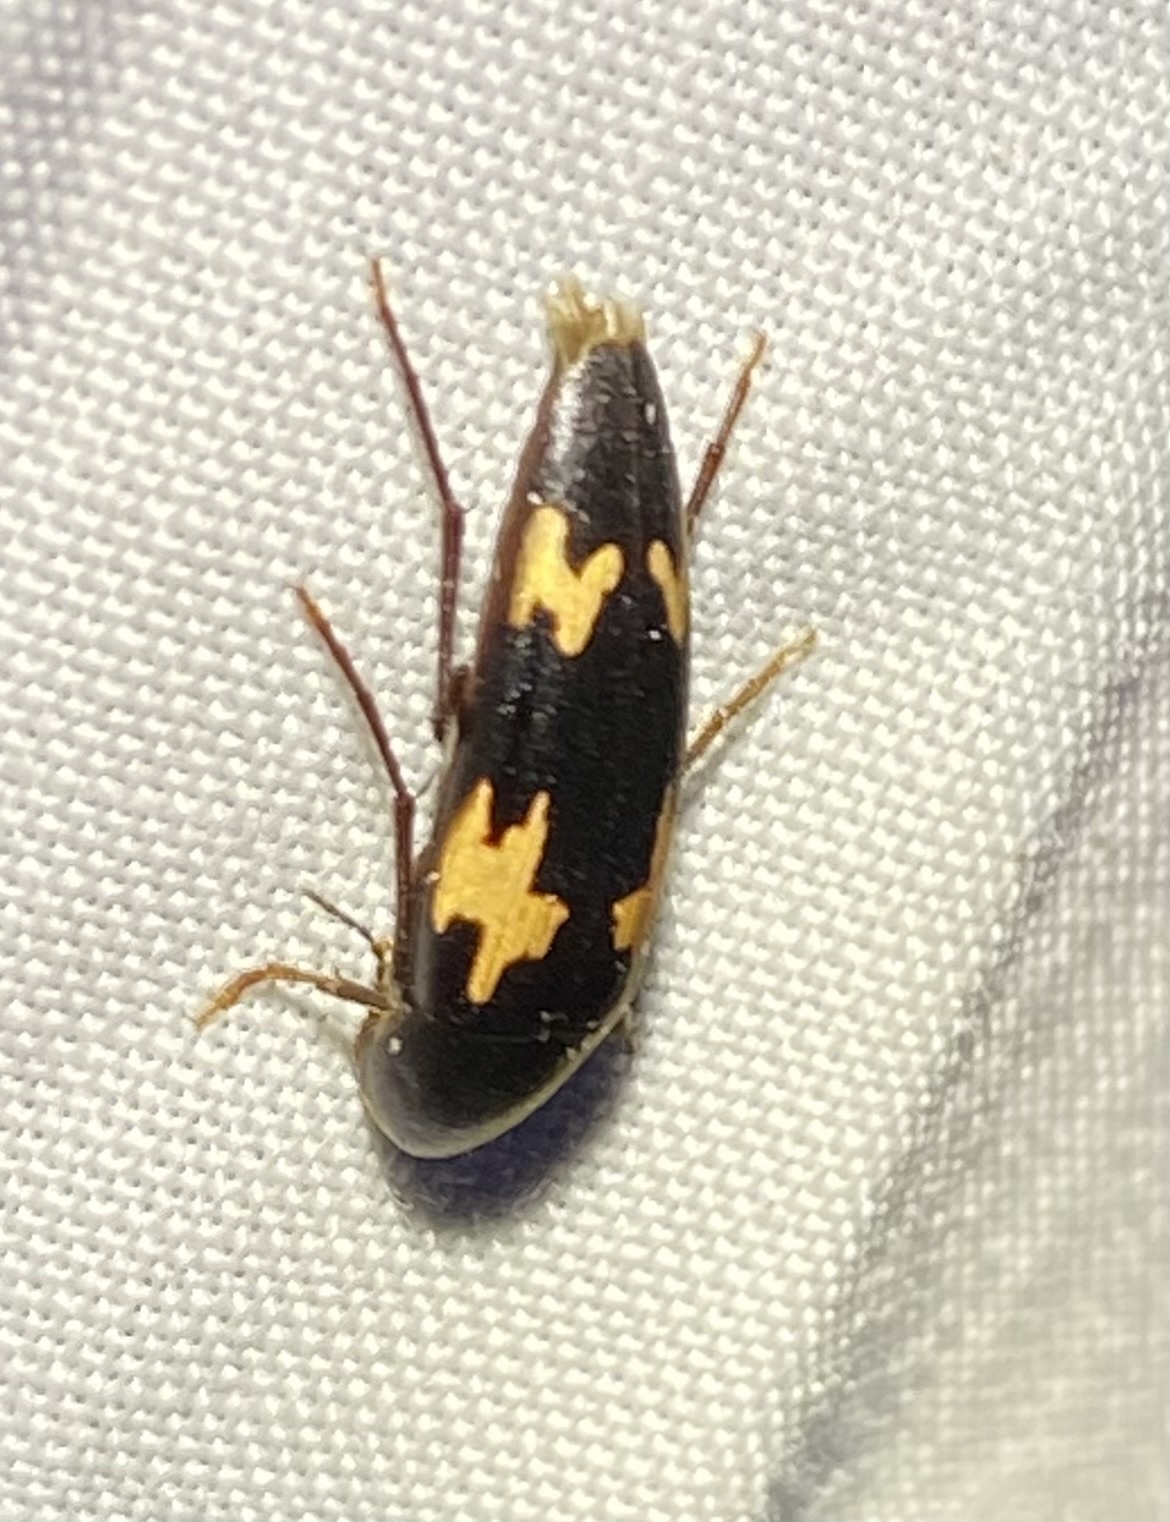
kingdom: Animalia
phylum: Arthropoda
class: Insecta
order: Coleoptera
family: Melandryidae
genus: Dircaea
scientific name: Dircaea liturata
